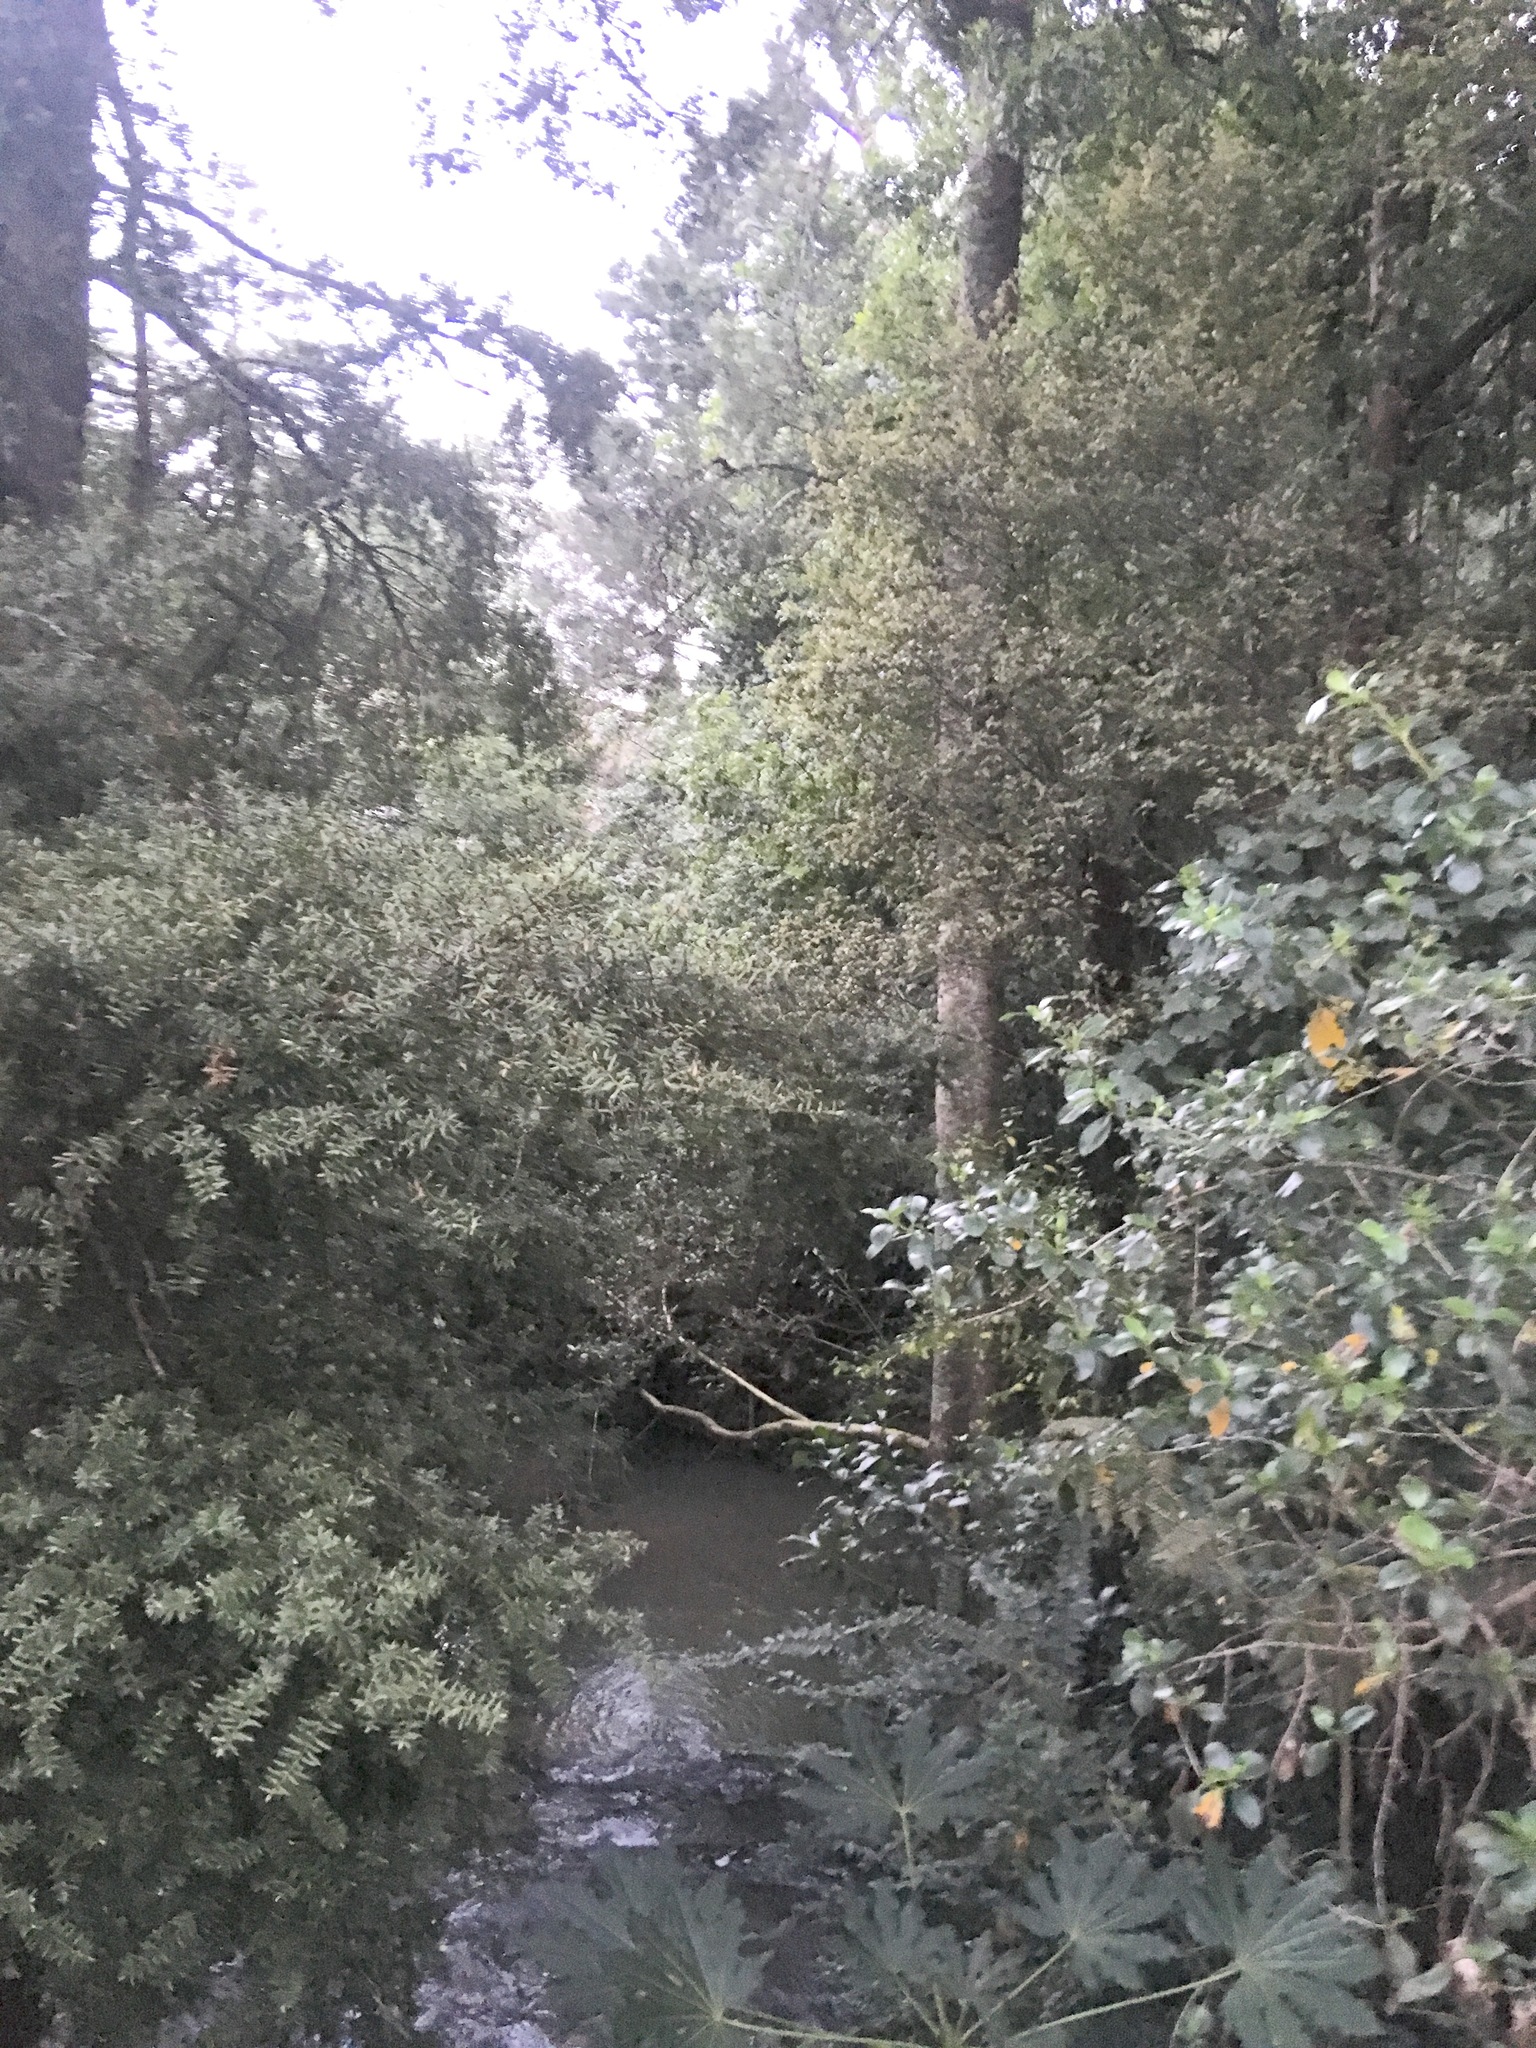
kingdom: Plantae
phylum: Tracheophyta
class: Pinopsida
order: Pinales
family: Podocarpaceae
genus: Podocarpus
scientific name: Podocarpus totara
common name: Totara
